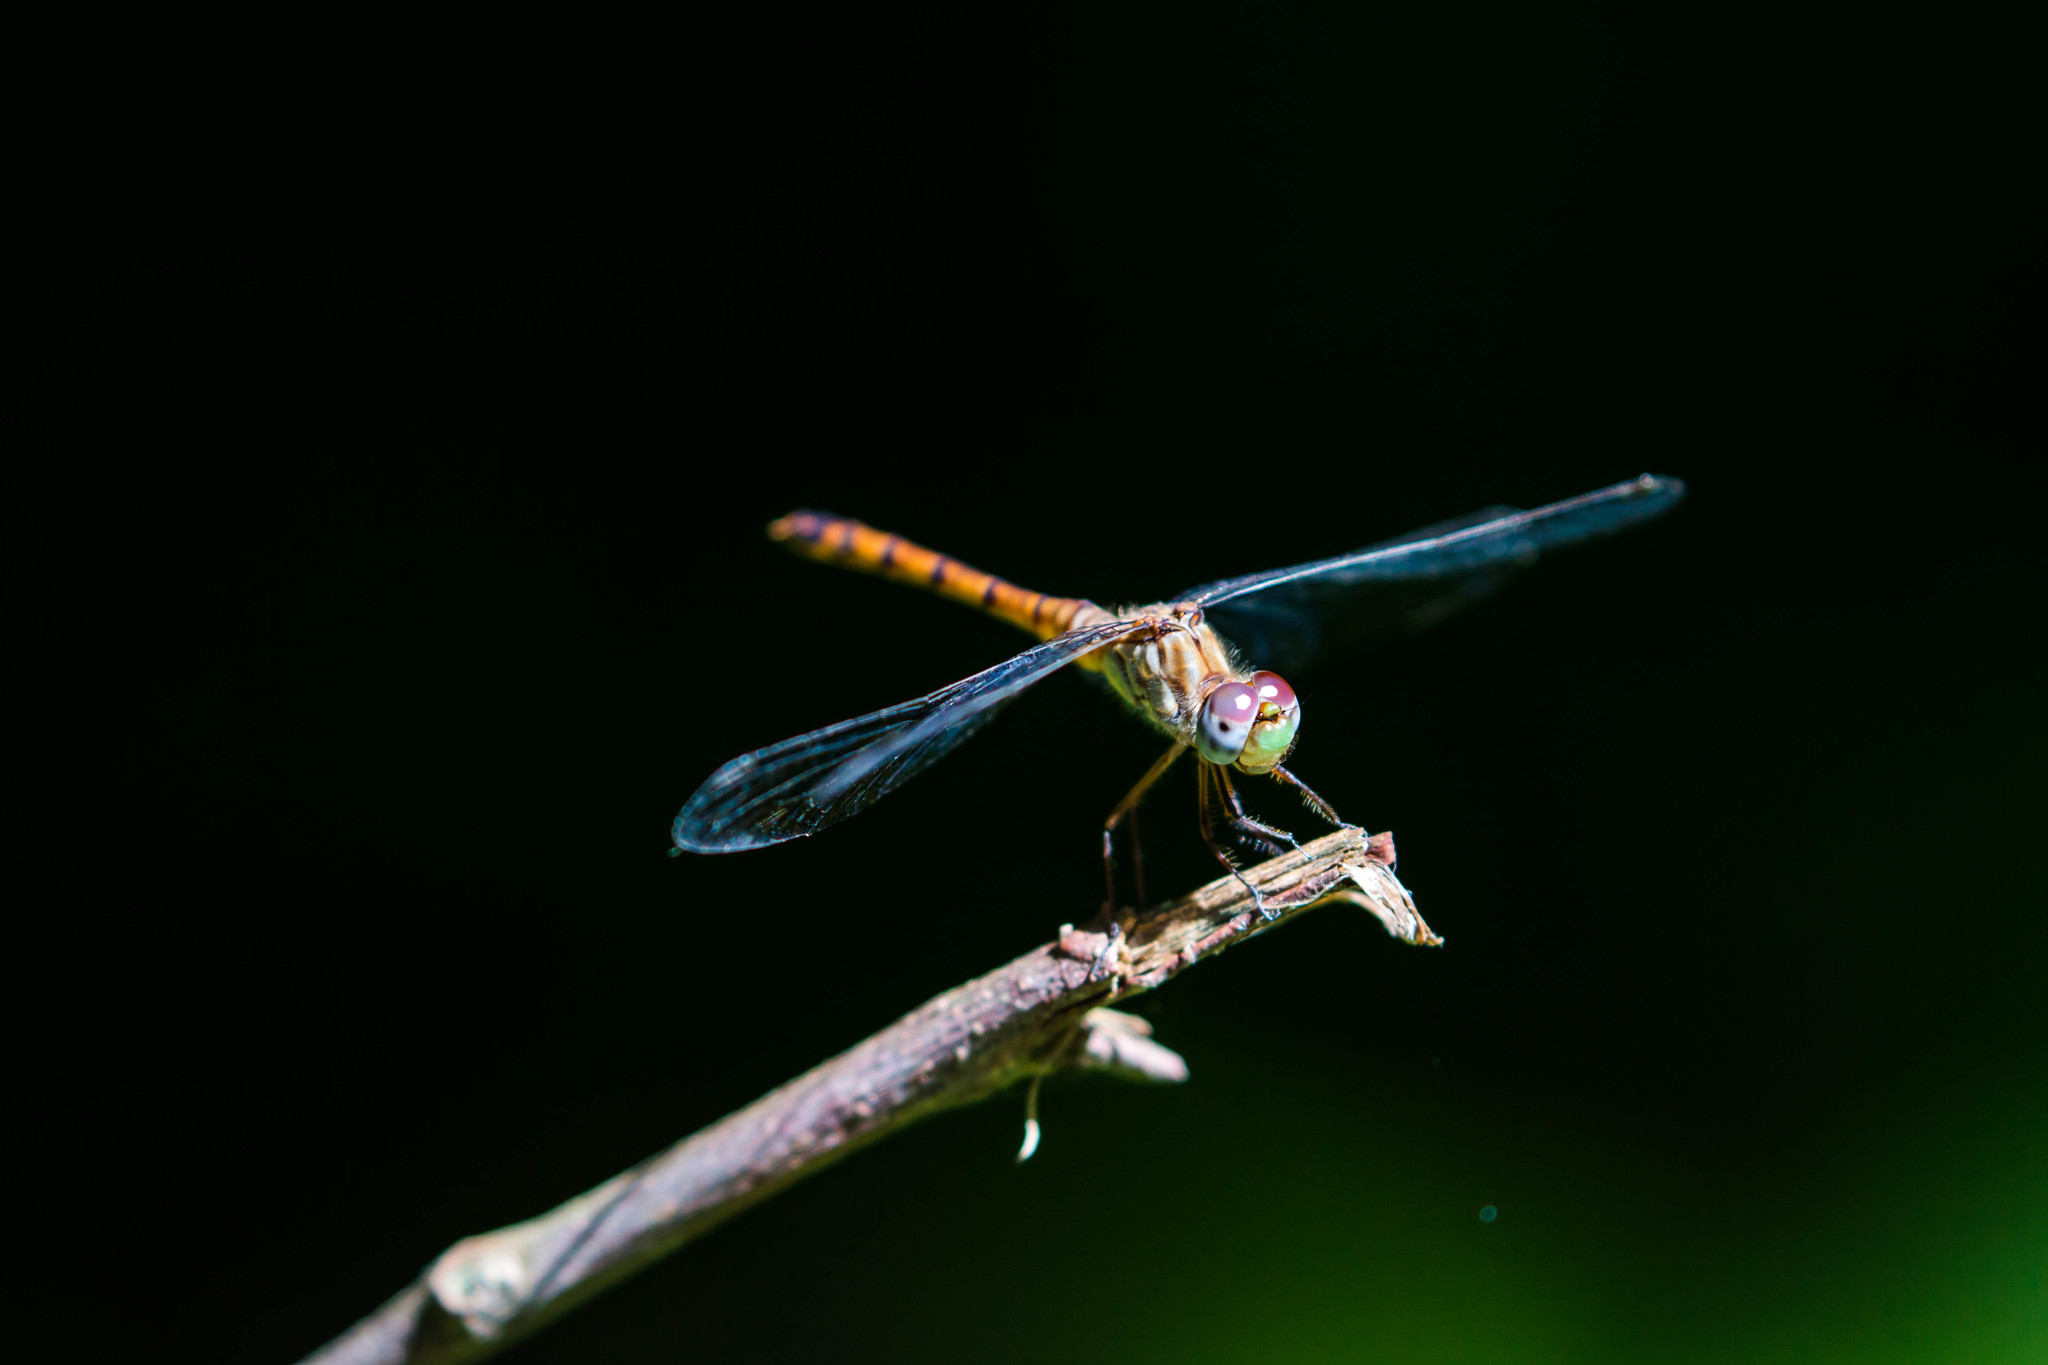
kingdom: Animalia
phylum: Arthropoda
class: Insecta
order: Odonata
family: Libellulidae
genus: Sympetrum
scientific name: Sympetrum ambiguum
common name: Blue-faced meadowhawk
